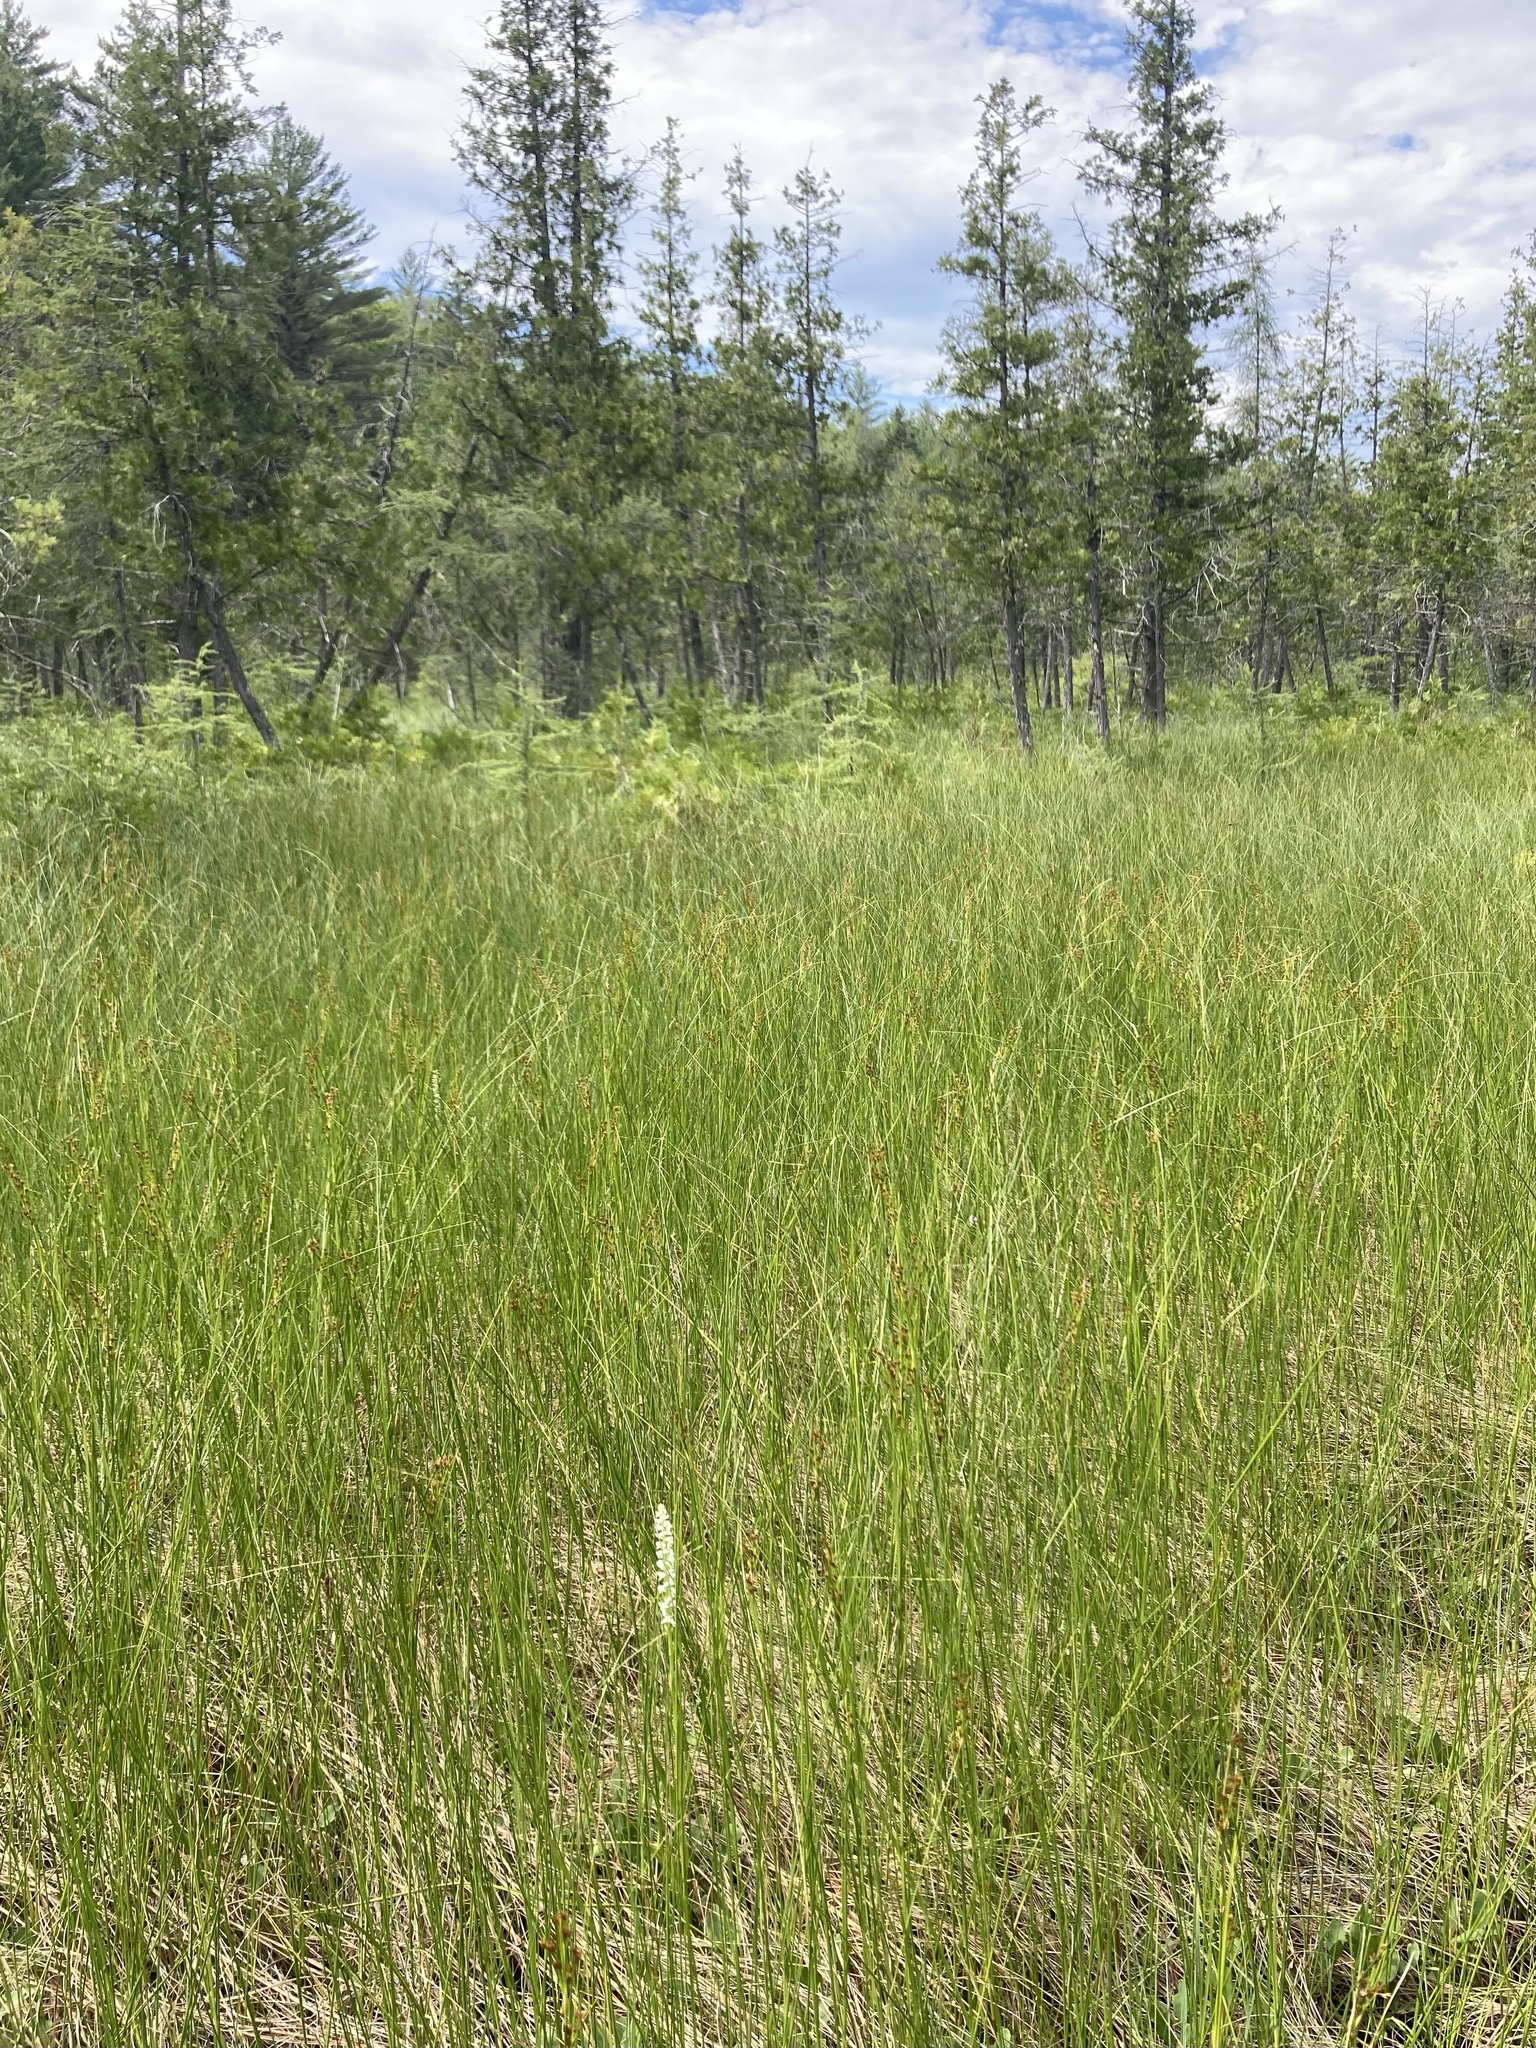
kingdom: Plantae
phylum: Tracheophyta
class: Liliopsida
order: Poales
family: Cyperaceae
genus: Cladium
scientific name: Cladium mariscoides
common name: Smooth sawgrass
